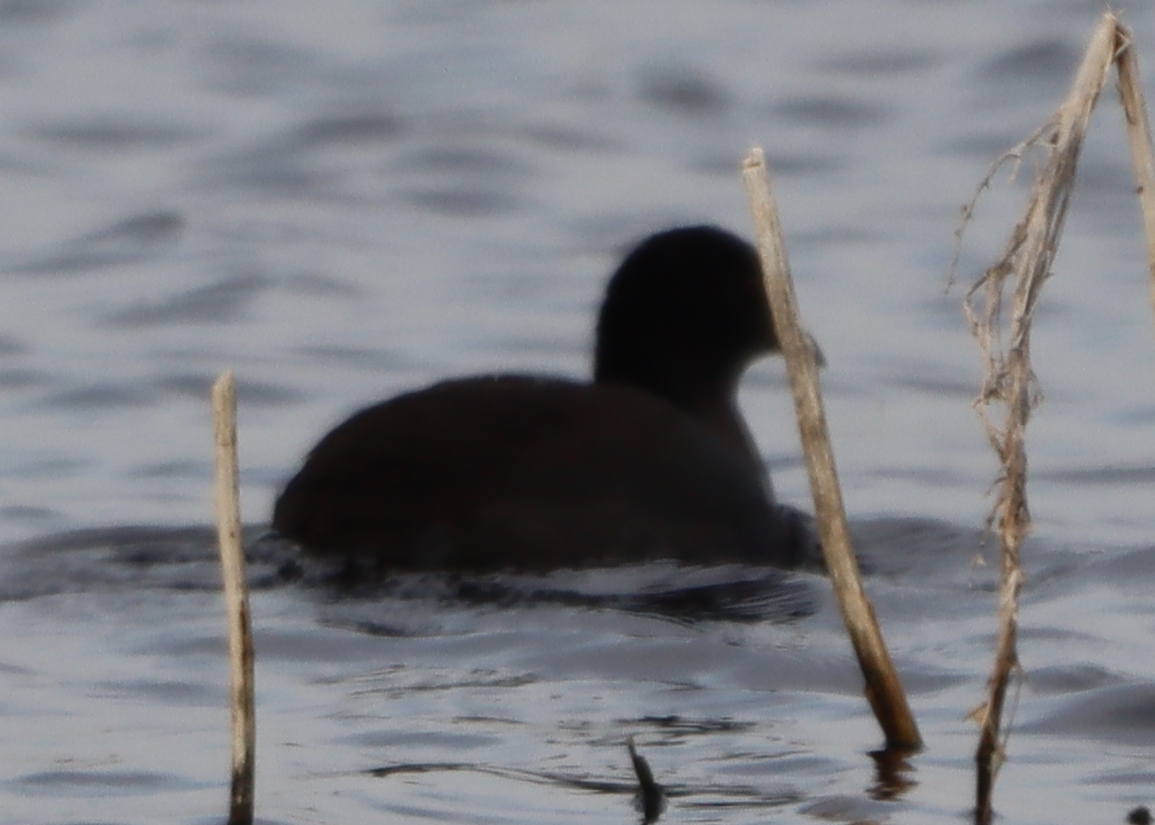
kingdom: Animalia
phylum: Chordata
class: Aves
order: Gruiformes
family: Rallidae
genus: Fulica
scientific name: Fulica americana
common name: American coot
